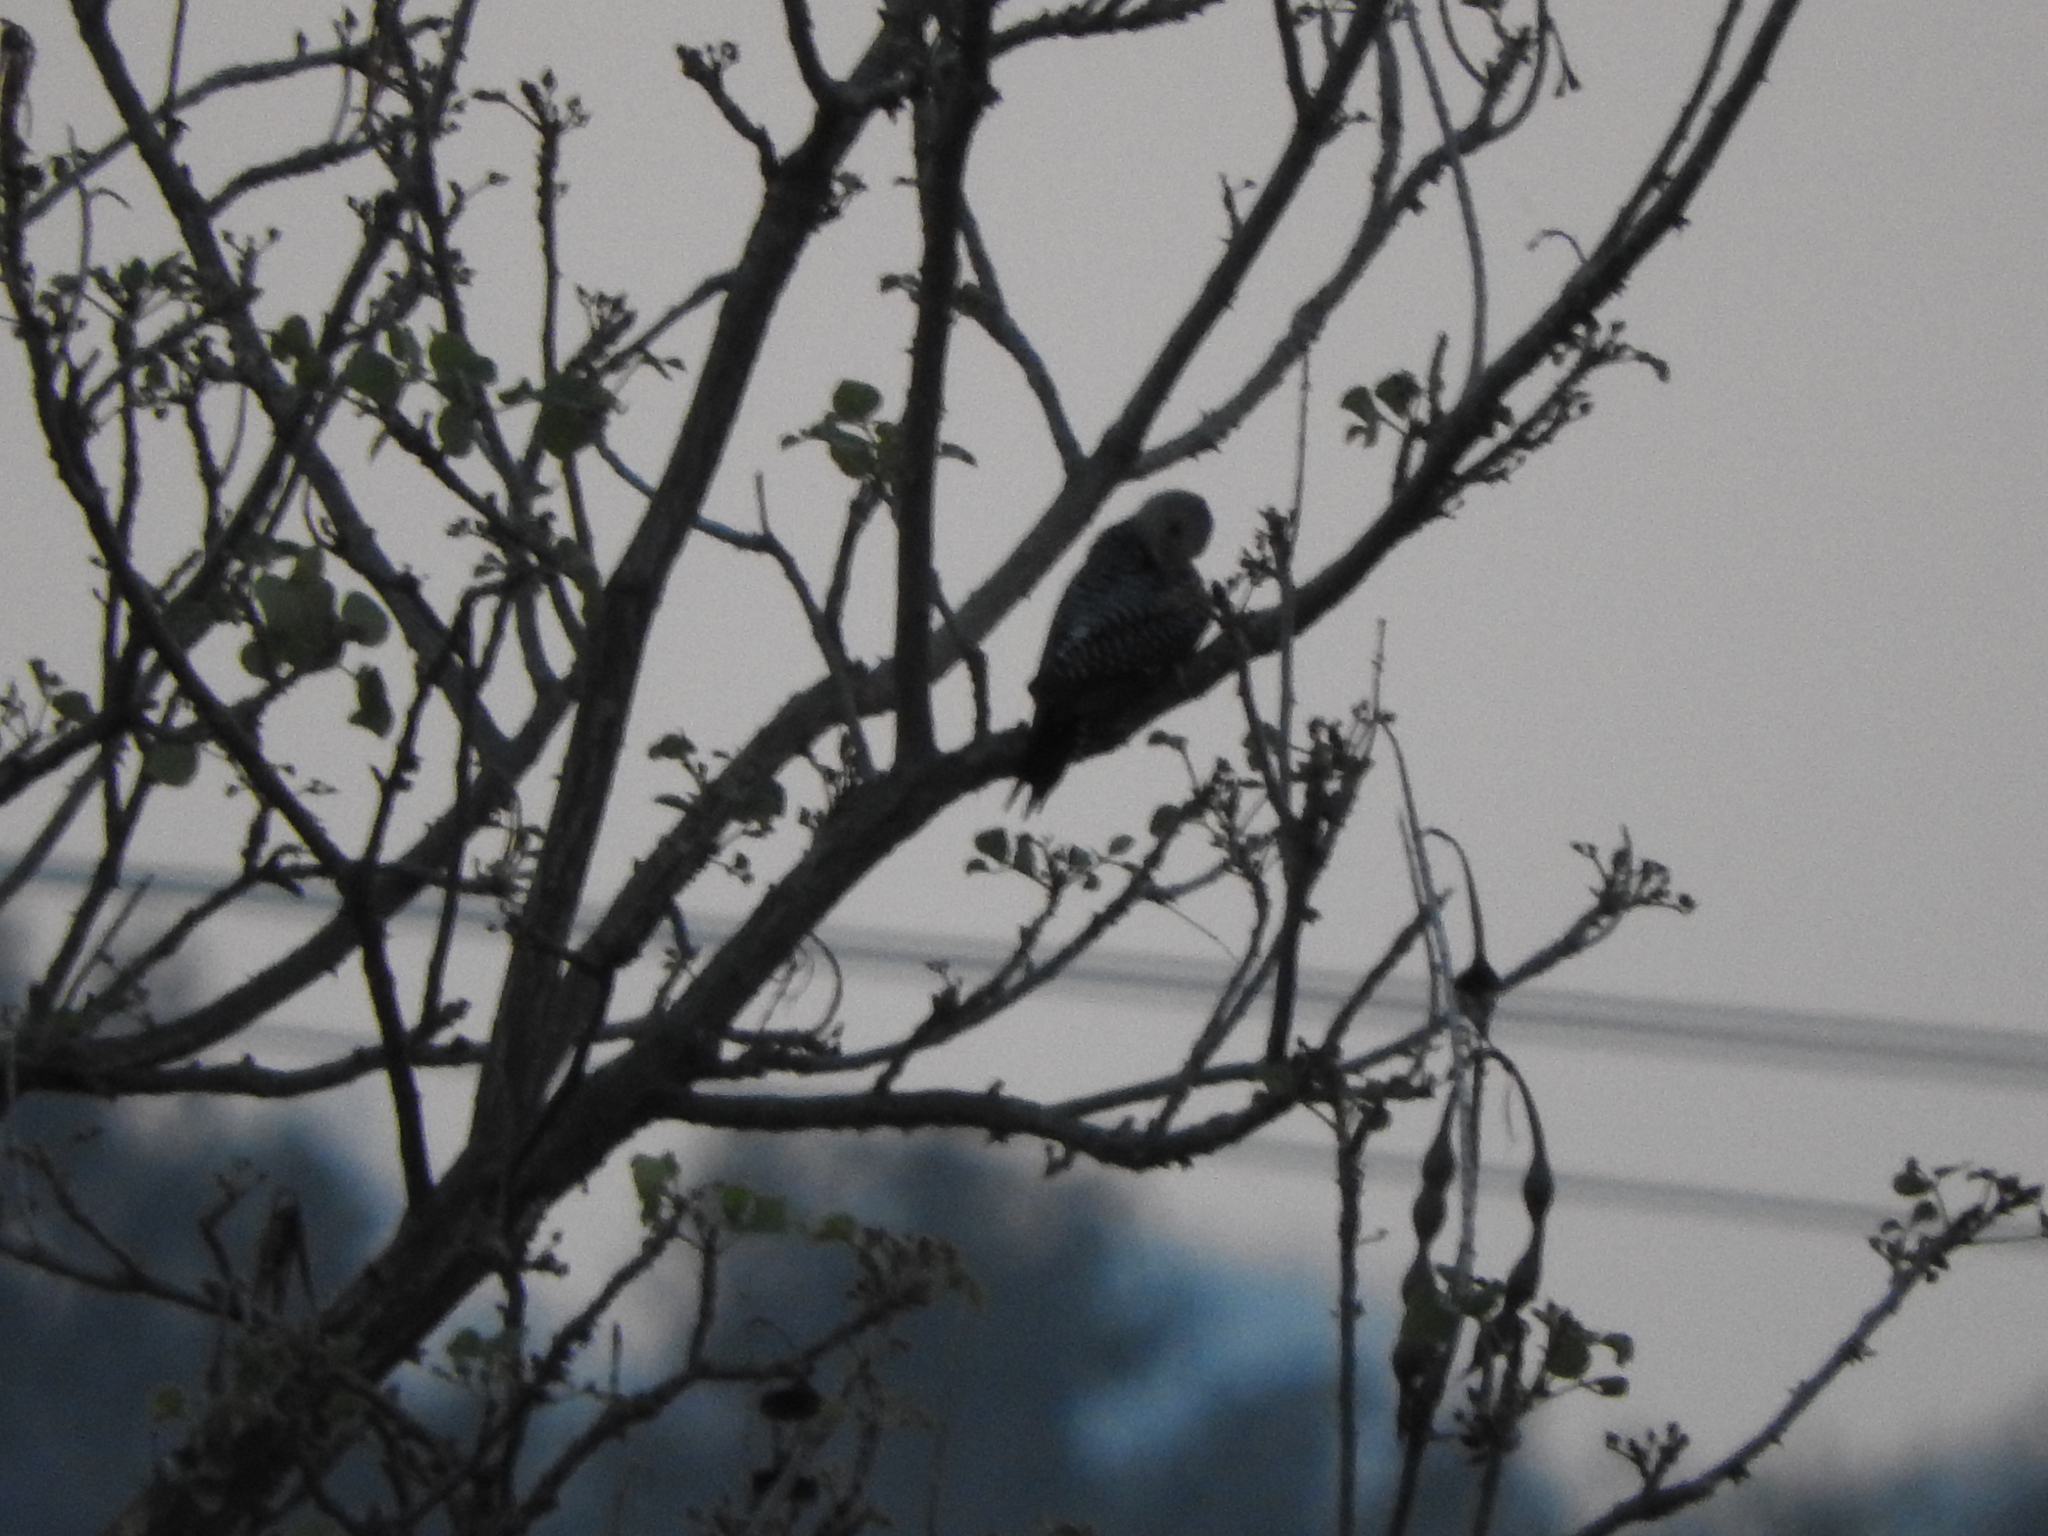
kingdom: Animalia
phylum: Chordata
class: Aves
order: Piciformes
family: Picidae
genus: Melanerpes
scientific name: Melanerpes aurifrons
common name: Golden-fronted woodpecker
